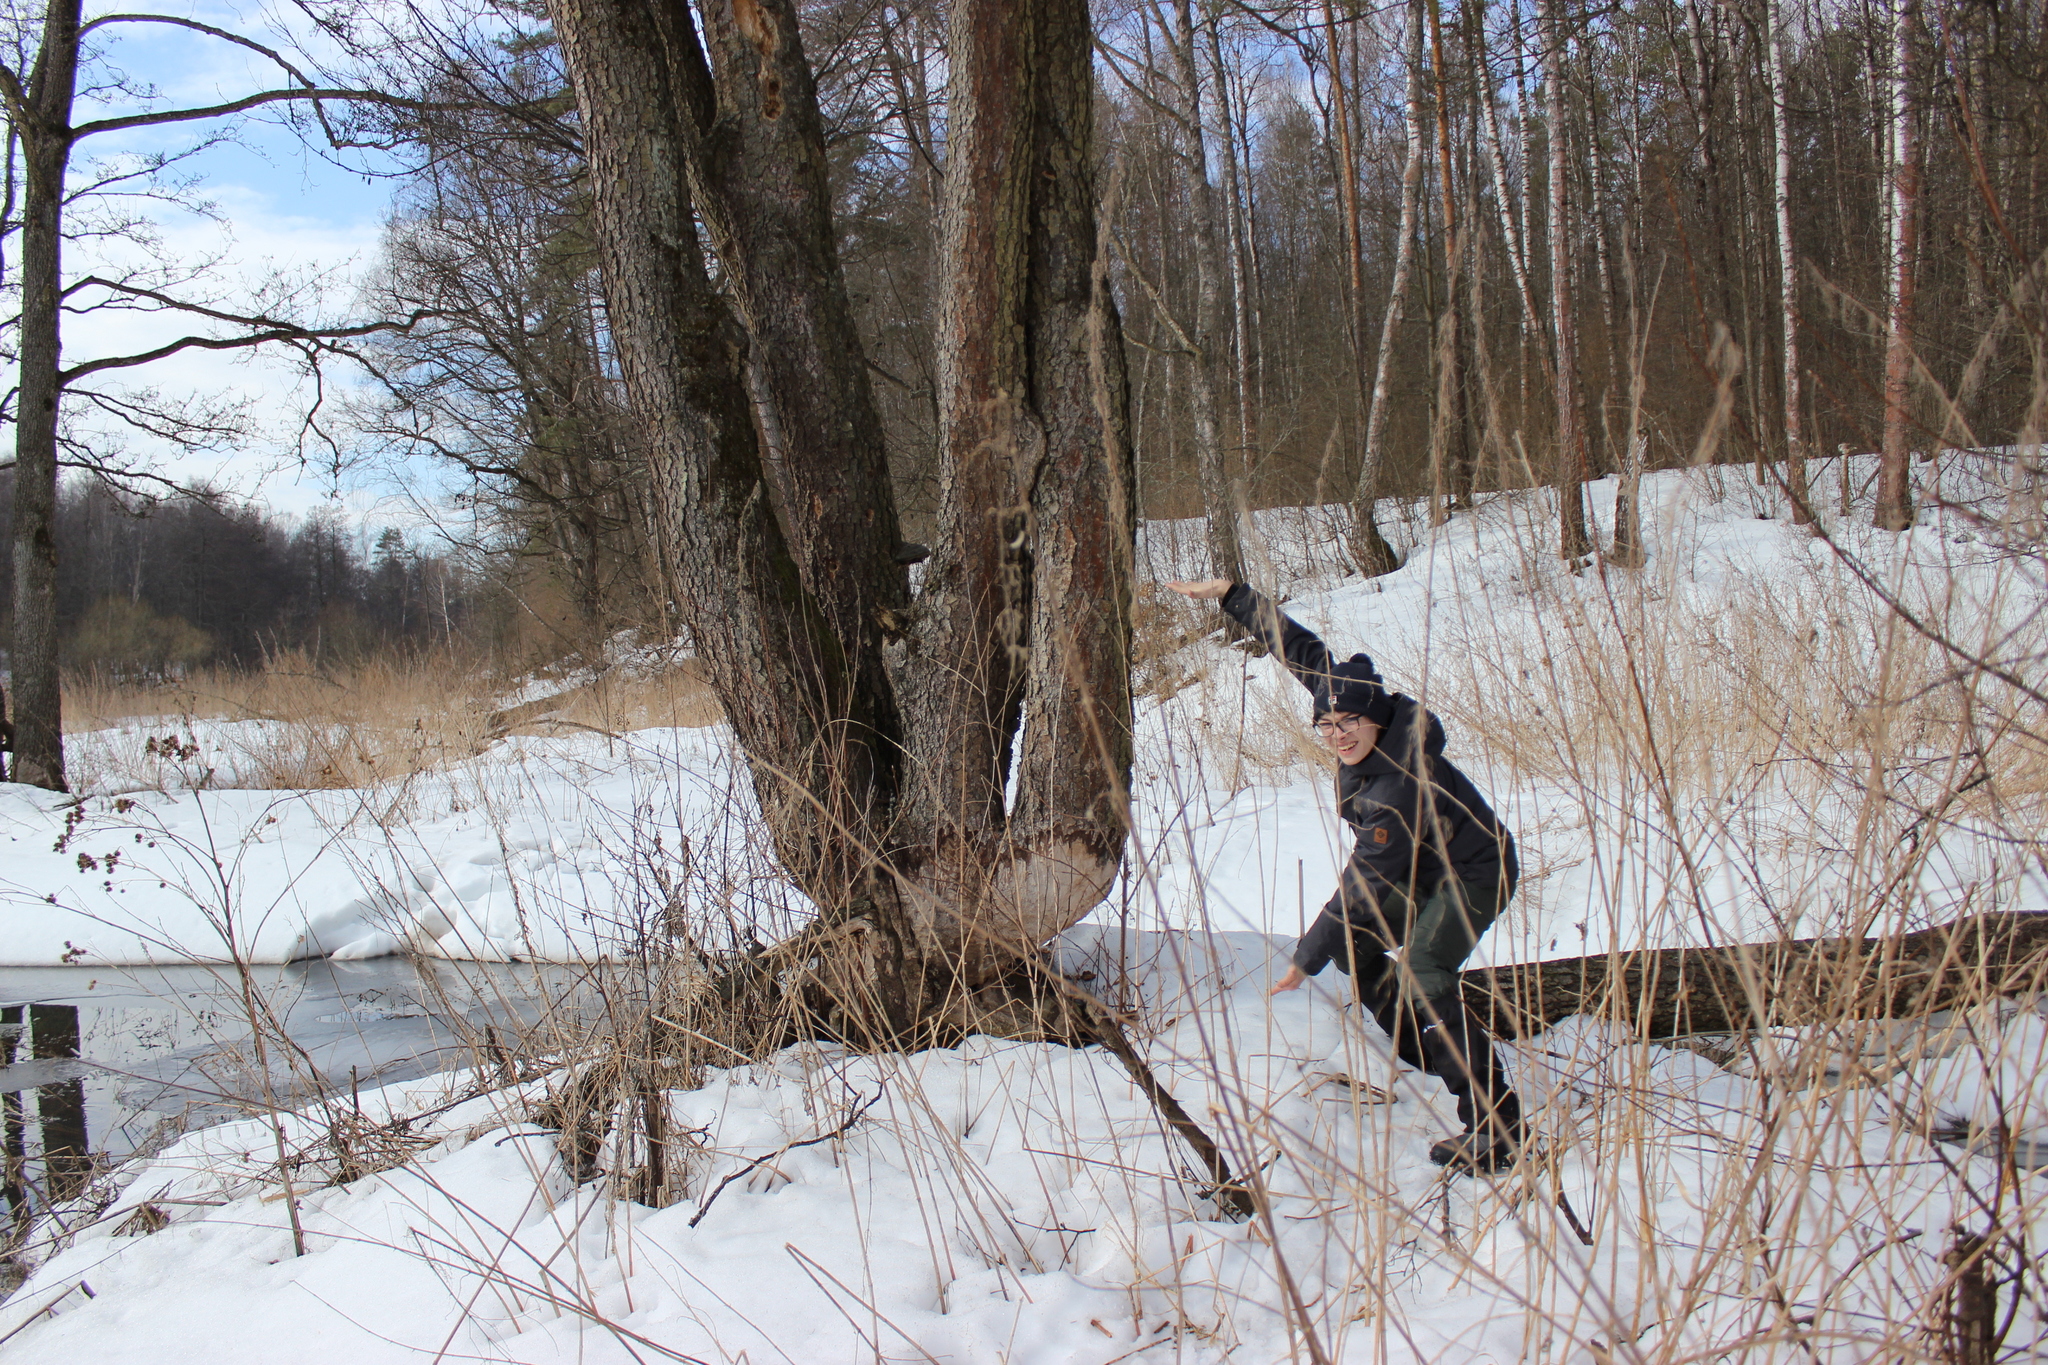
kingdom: Plantae
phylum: Tracheophyta
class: Magnoliopsida
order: Fagales
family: Betulaceae
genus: Alnus
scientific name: Alnus glutinosa
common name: Black alder
